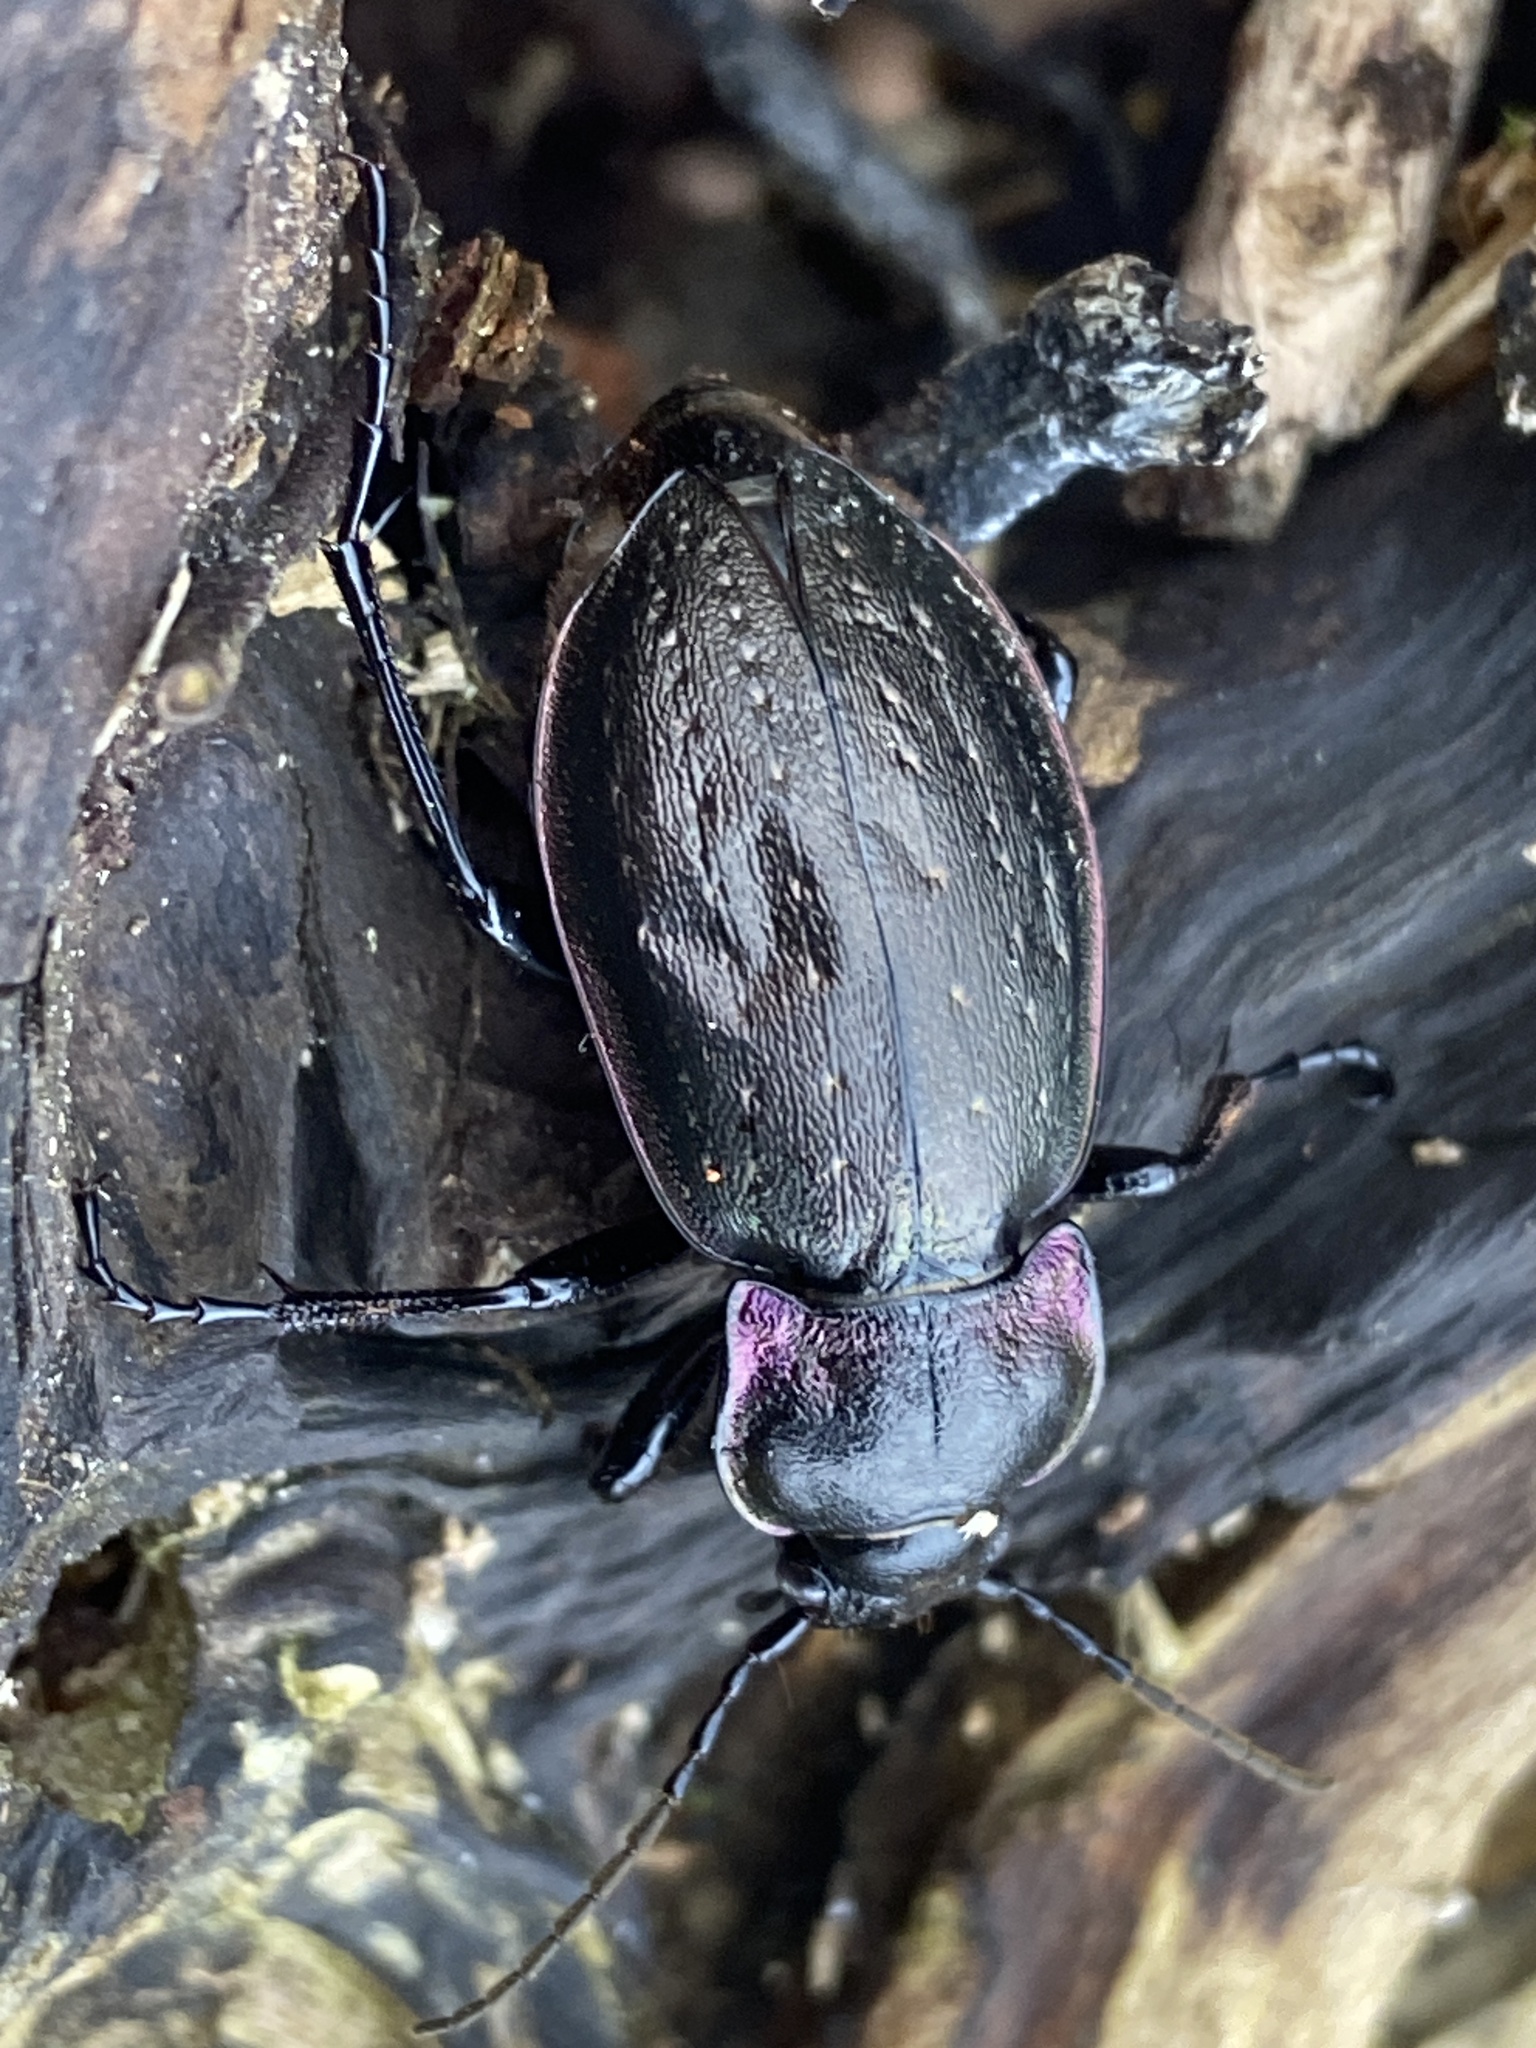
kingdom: Animalia
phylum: Arthropoda
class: Insecta
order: Coleoptera
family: Carabidae
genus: Carabus
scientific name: Carabus nemoralis
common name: European ground beetle
